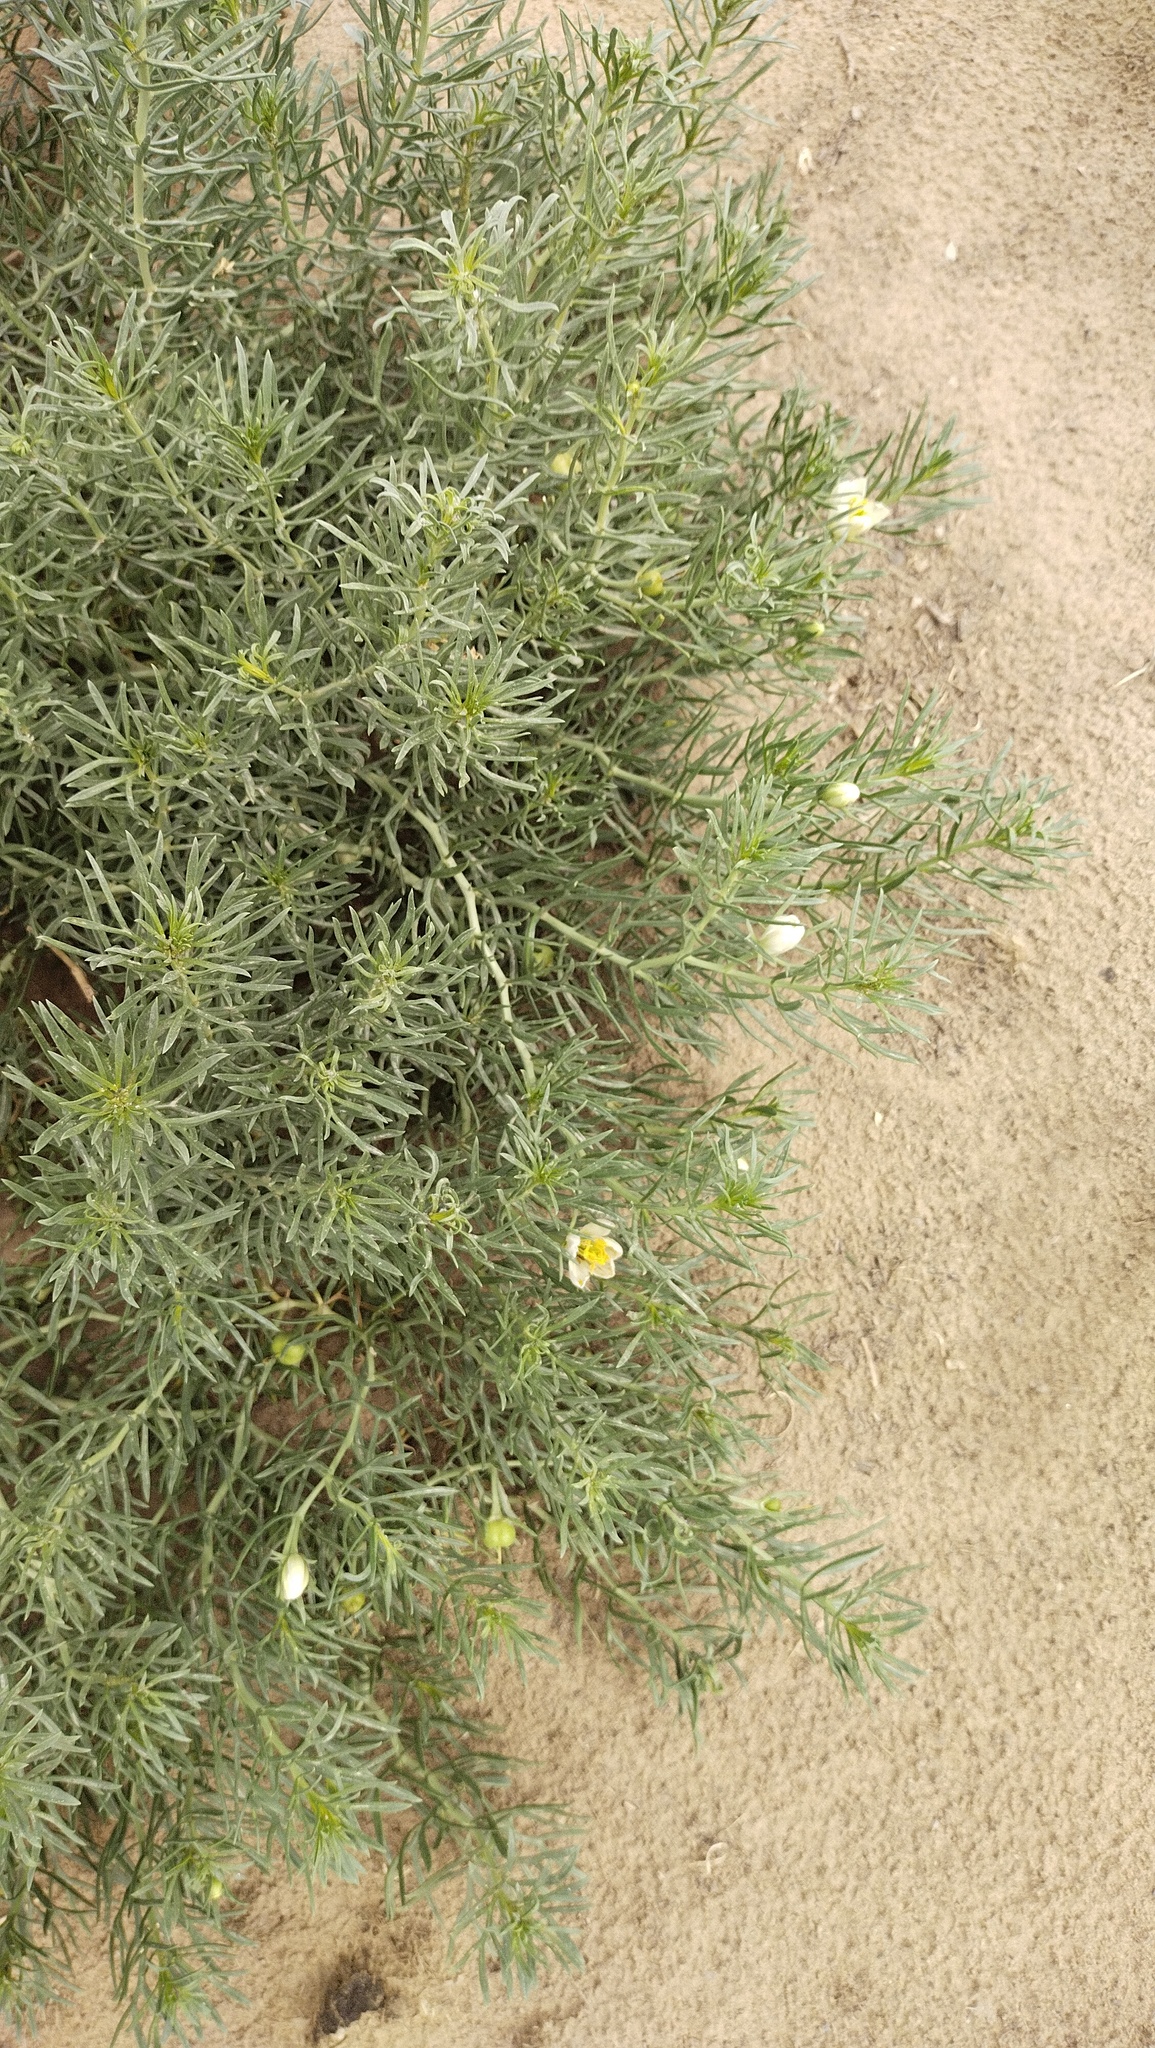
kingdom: Plantae
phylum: Tracheophyta
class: Magnoliopsida
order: Sapindales
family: Tetradiclidaceae
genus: Peganum
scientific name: Peganum harmala
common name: Harmal peganum
